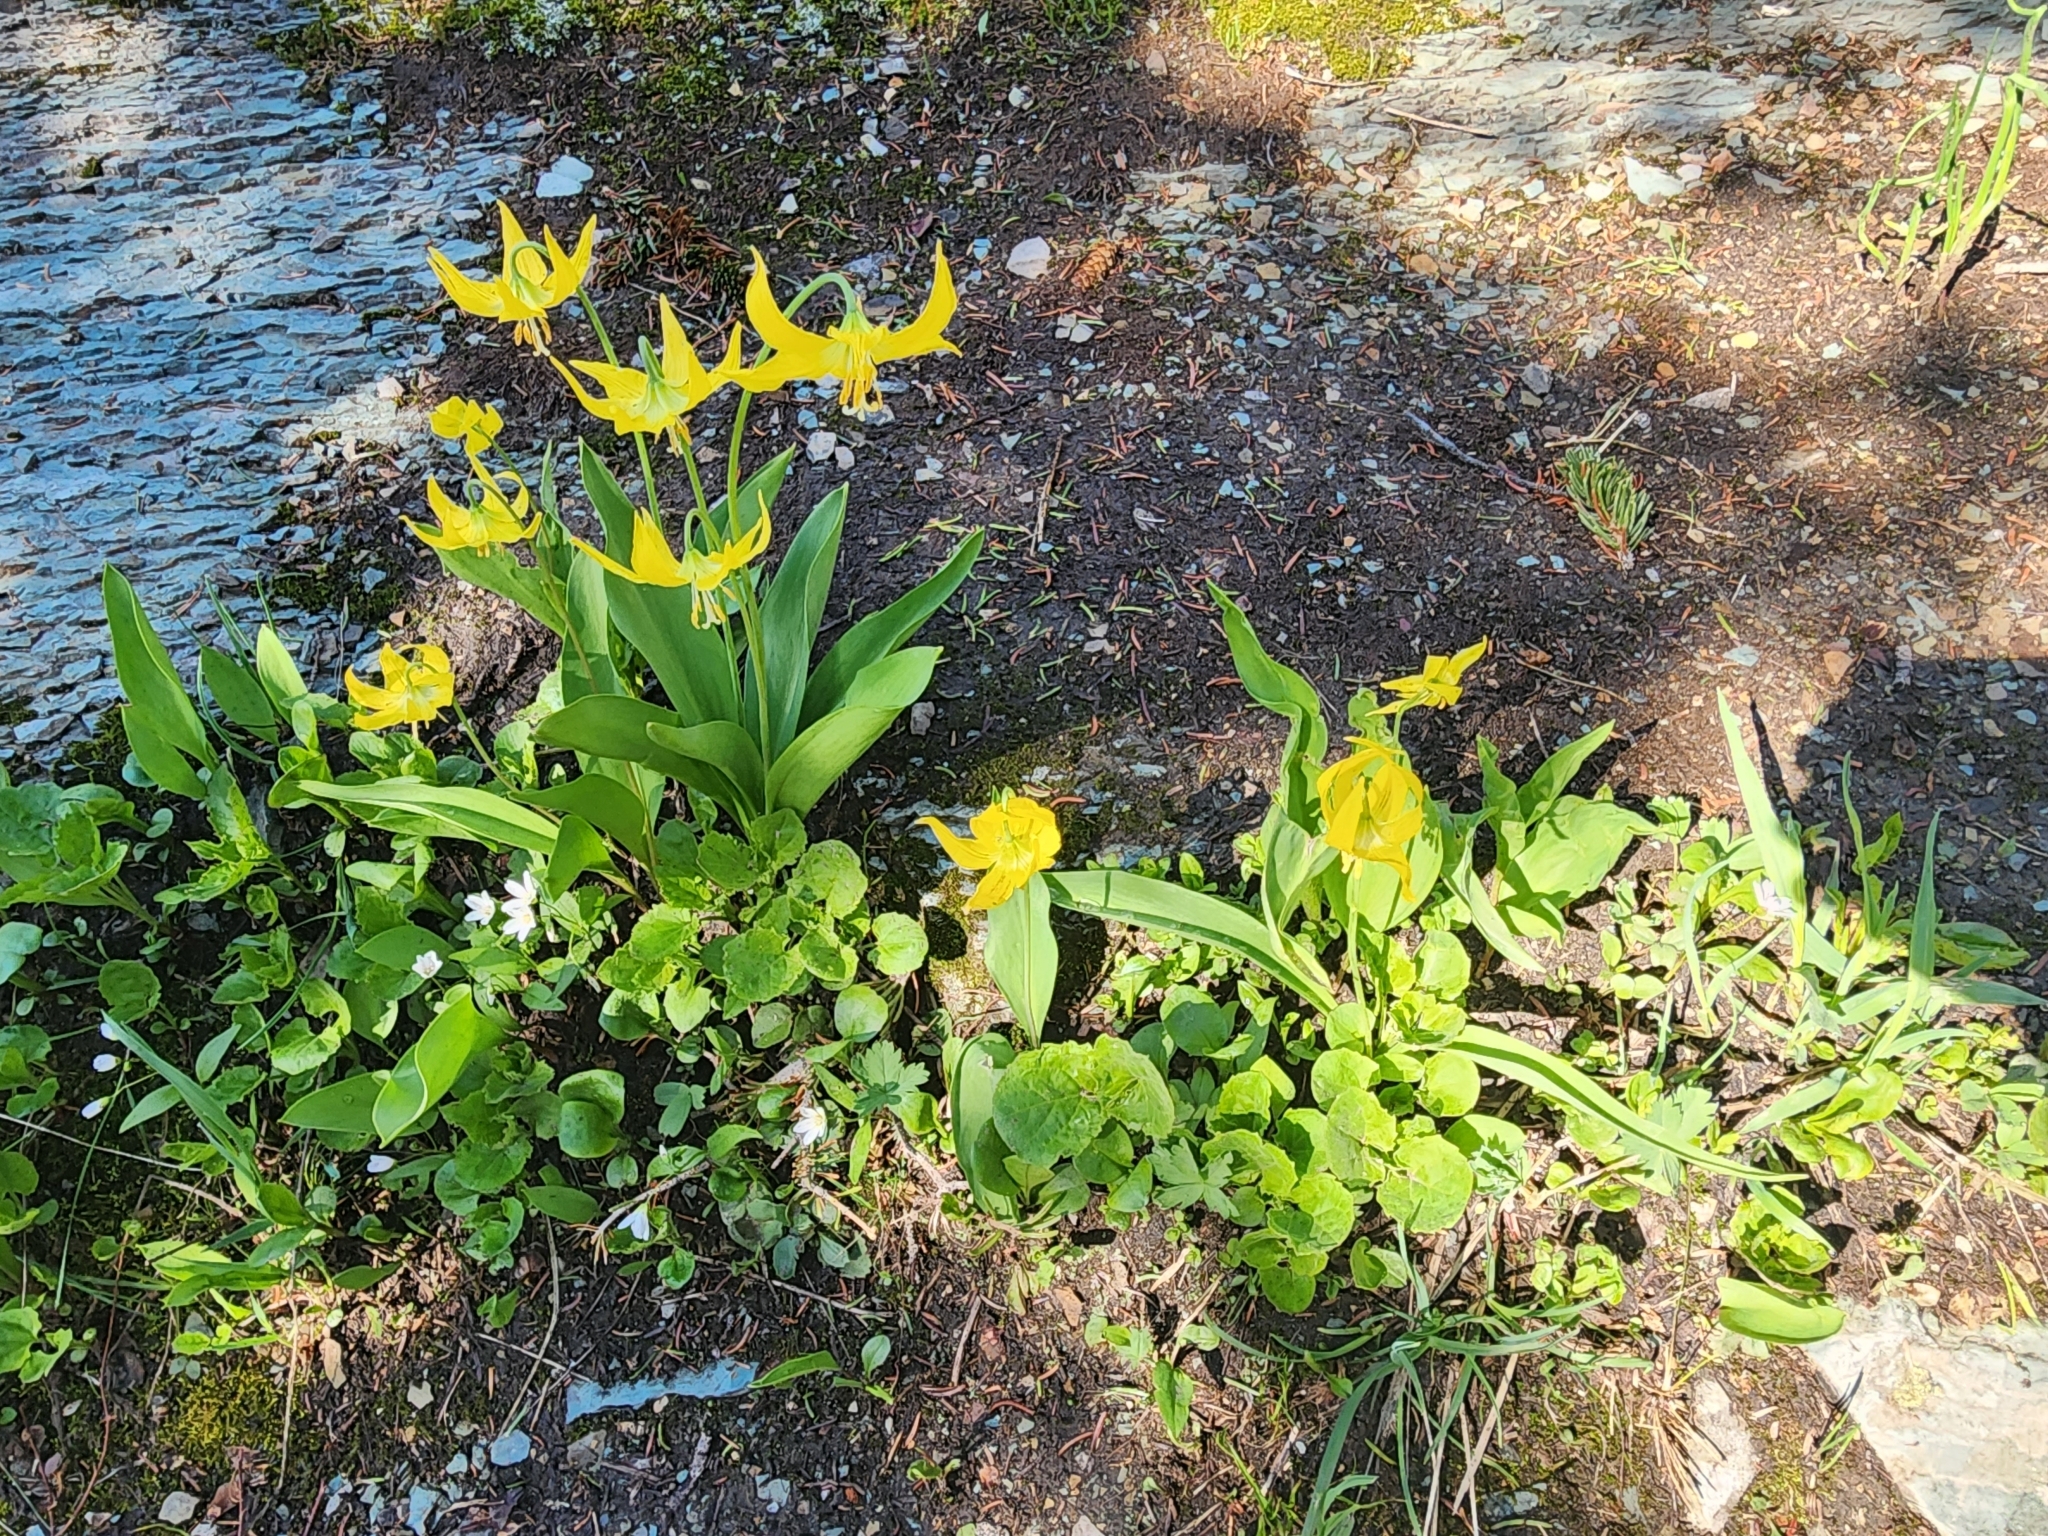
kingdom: Plantae
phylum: Tracheophyta
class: Liliopsida
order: Liliales
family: Liliaceae
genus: Erythronium
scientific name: Erythronium grandiflorum
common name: Avalanche-lily
